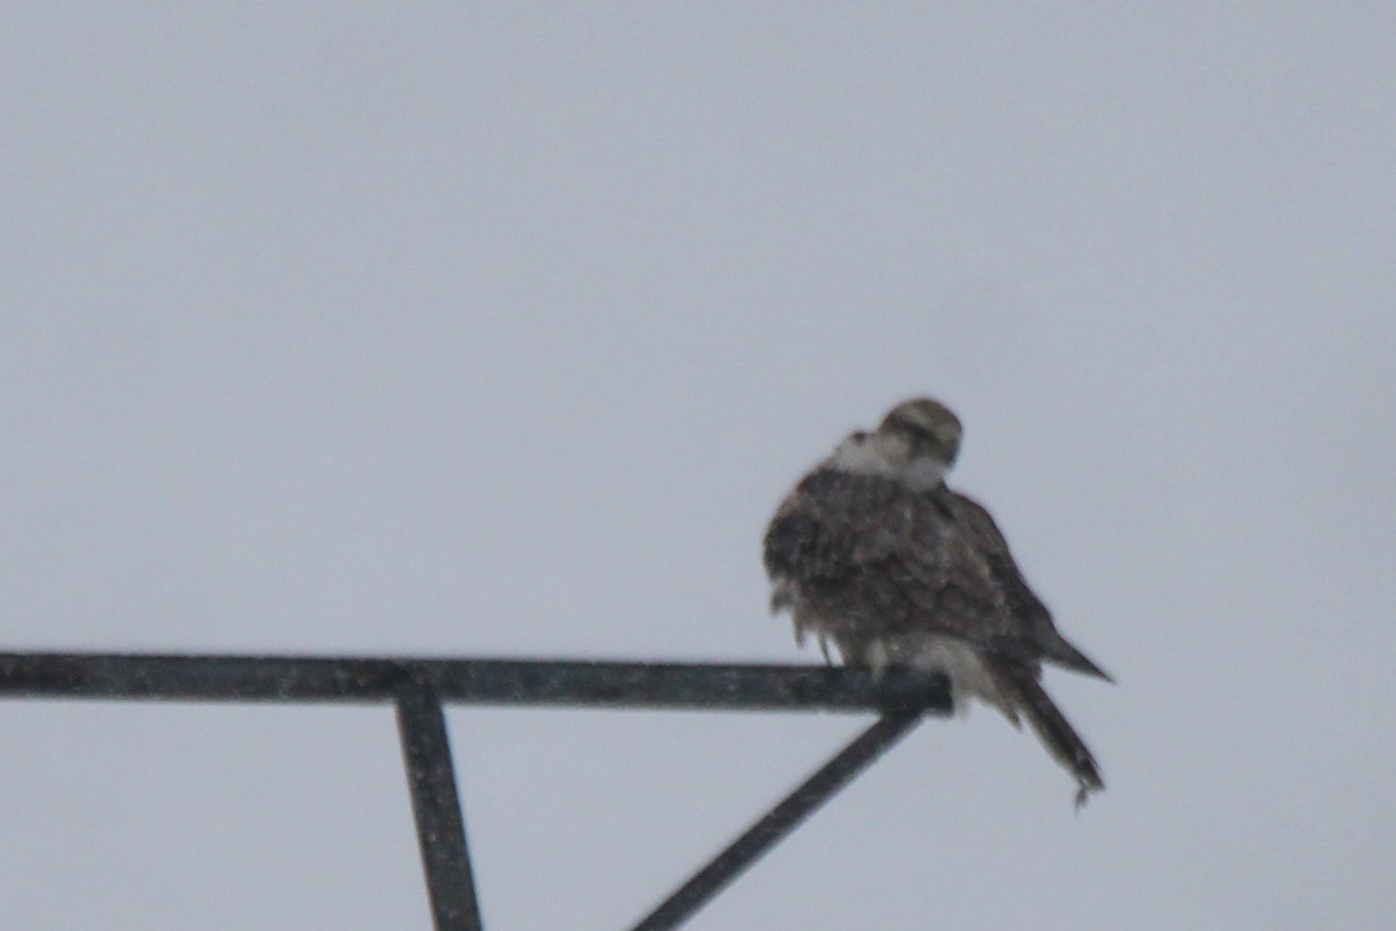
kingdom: Animalia
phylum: Chordata
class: Aves
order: Falconiformes
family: Falconidae
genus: Falco
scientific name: Falco cherrug
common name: Saker falcon
